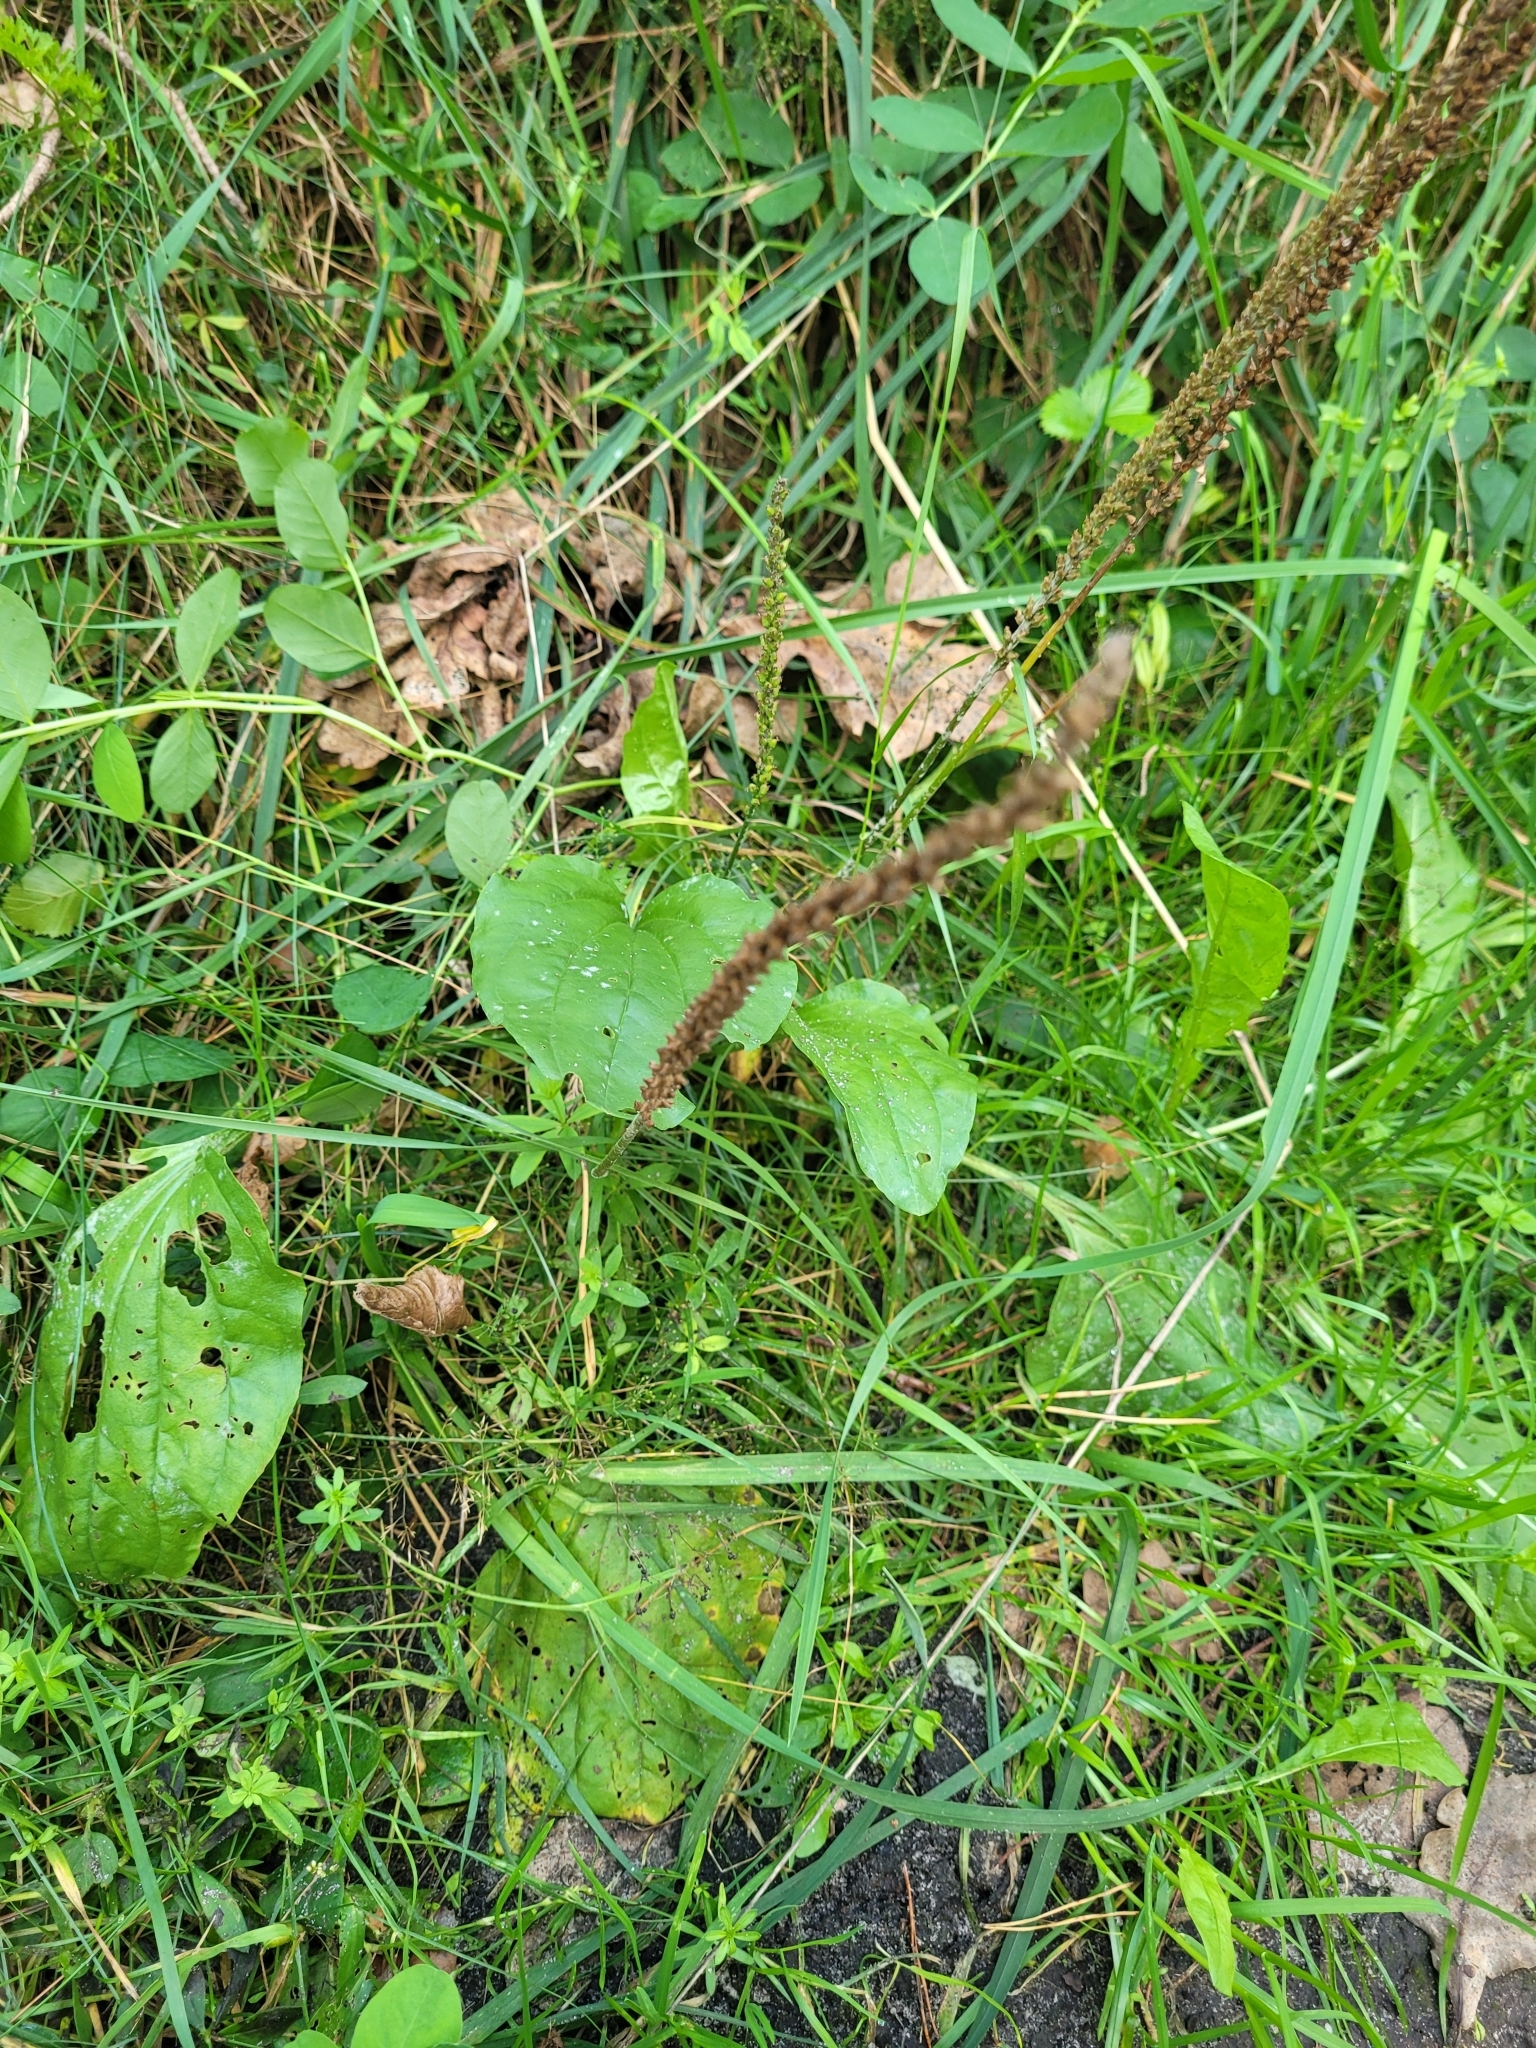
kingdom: Plantae
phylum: Tracheophyta
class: Magnoliopsida
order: Lamiales
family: Plantaginaceae
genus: Plantago
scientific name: Plantago major
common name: Common plantain
